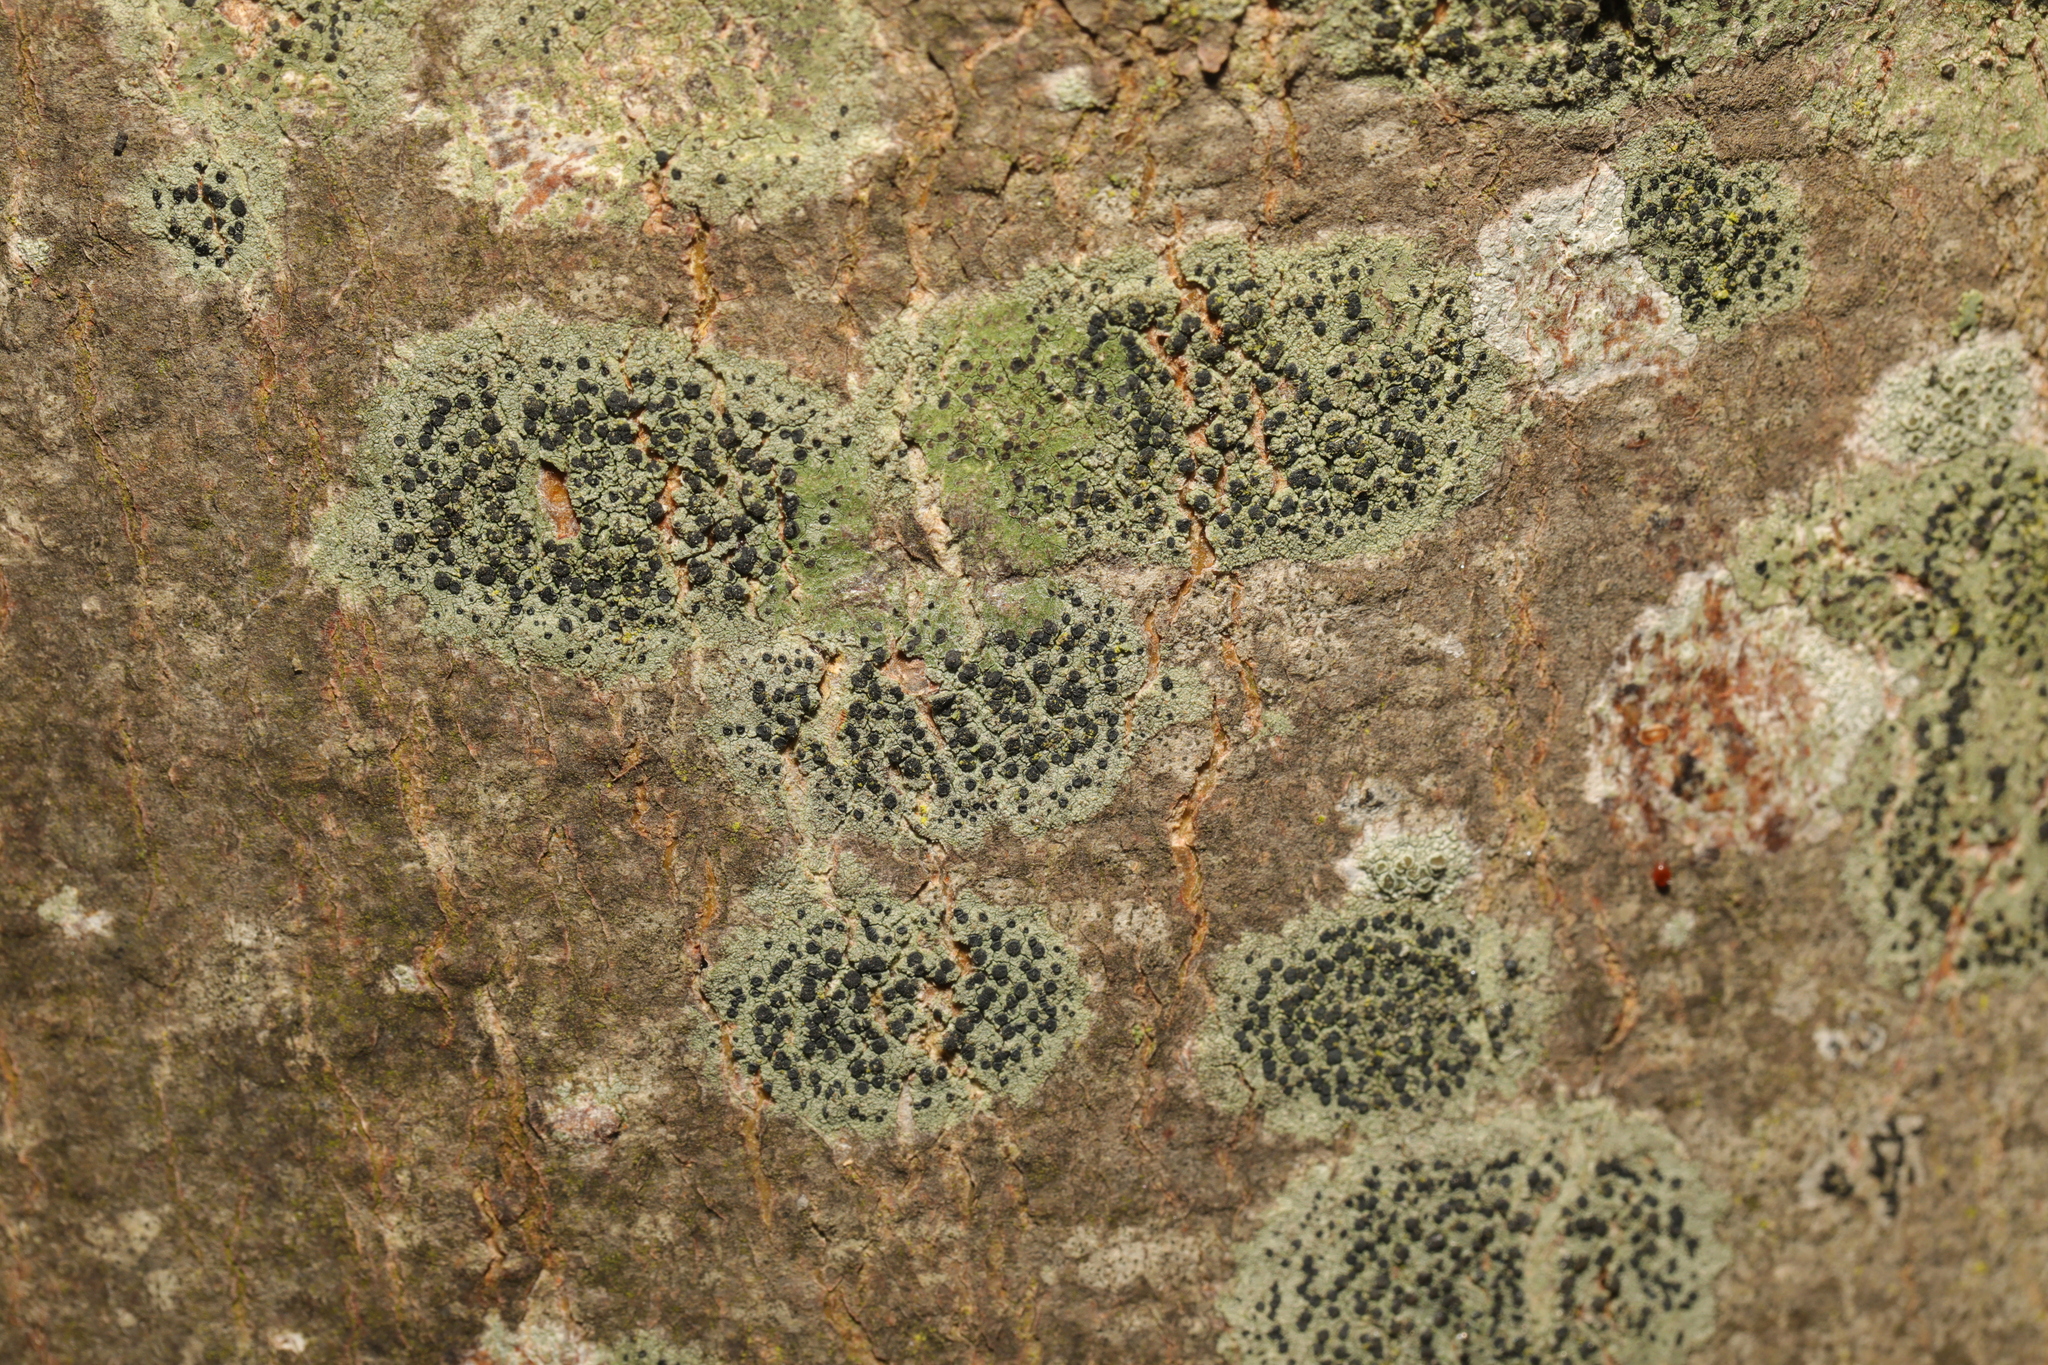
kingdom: Fungi
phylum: Ascomycota
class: Lecanoromycetes
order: Lecanorales
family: Lecanoraceae
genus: Lecidella
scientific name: Lecidella elaeochroma
